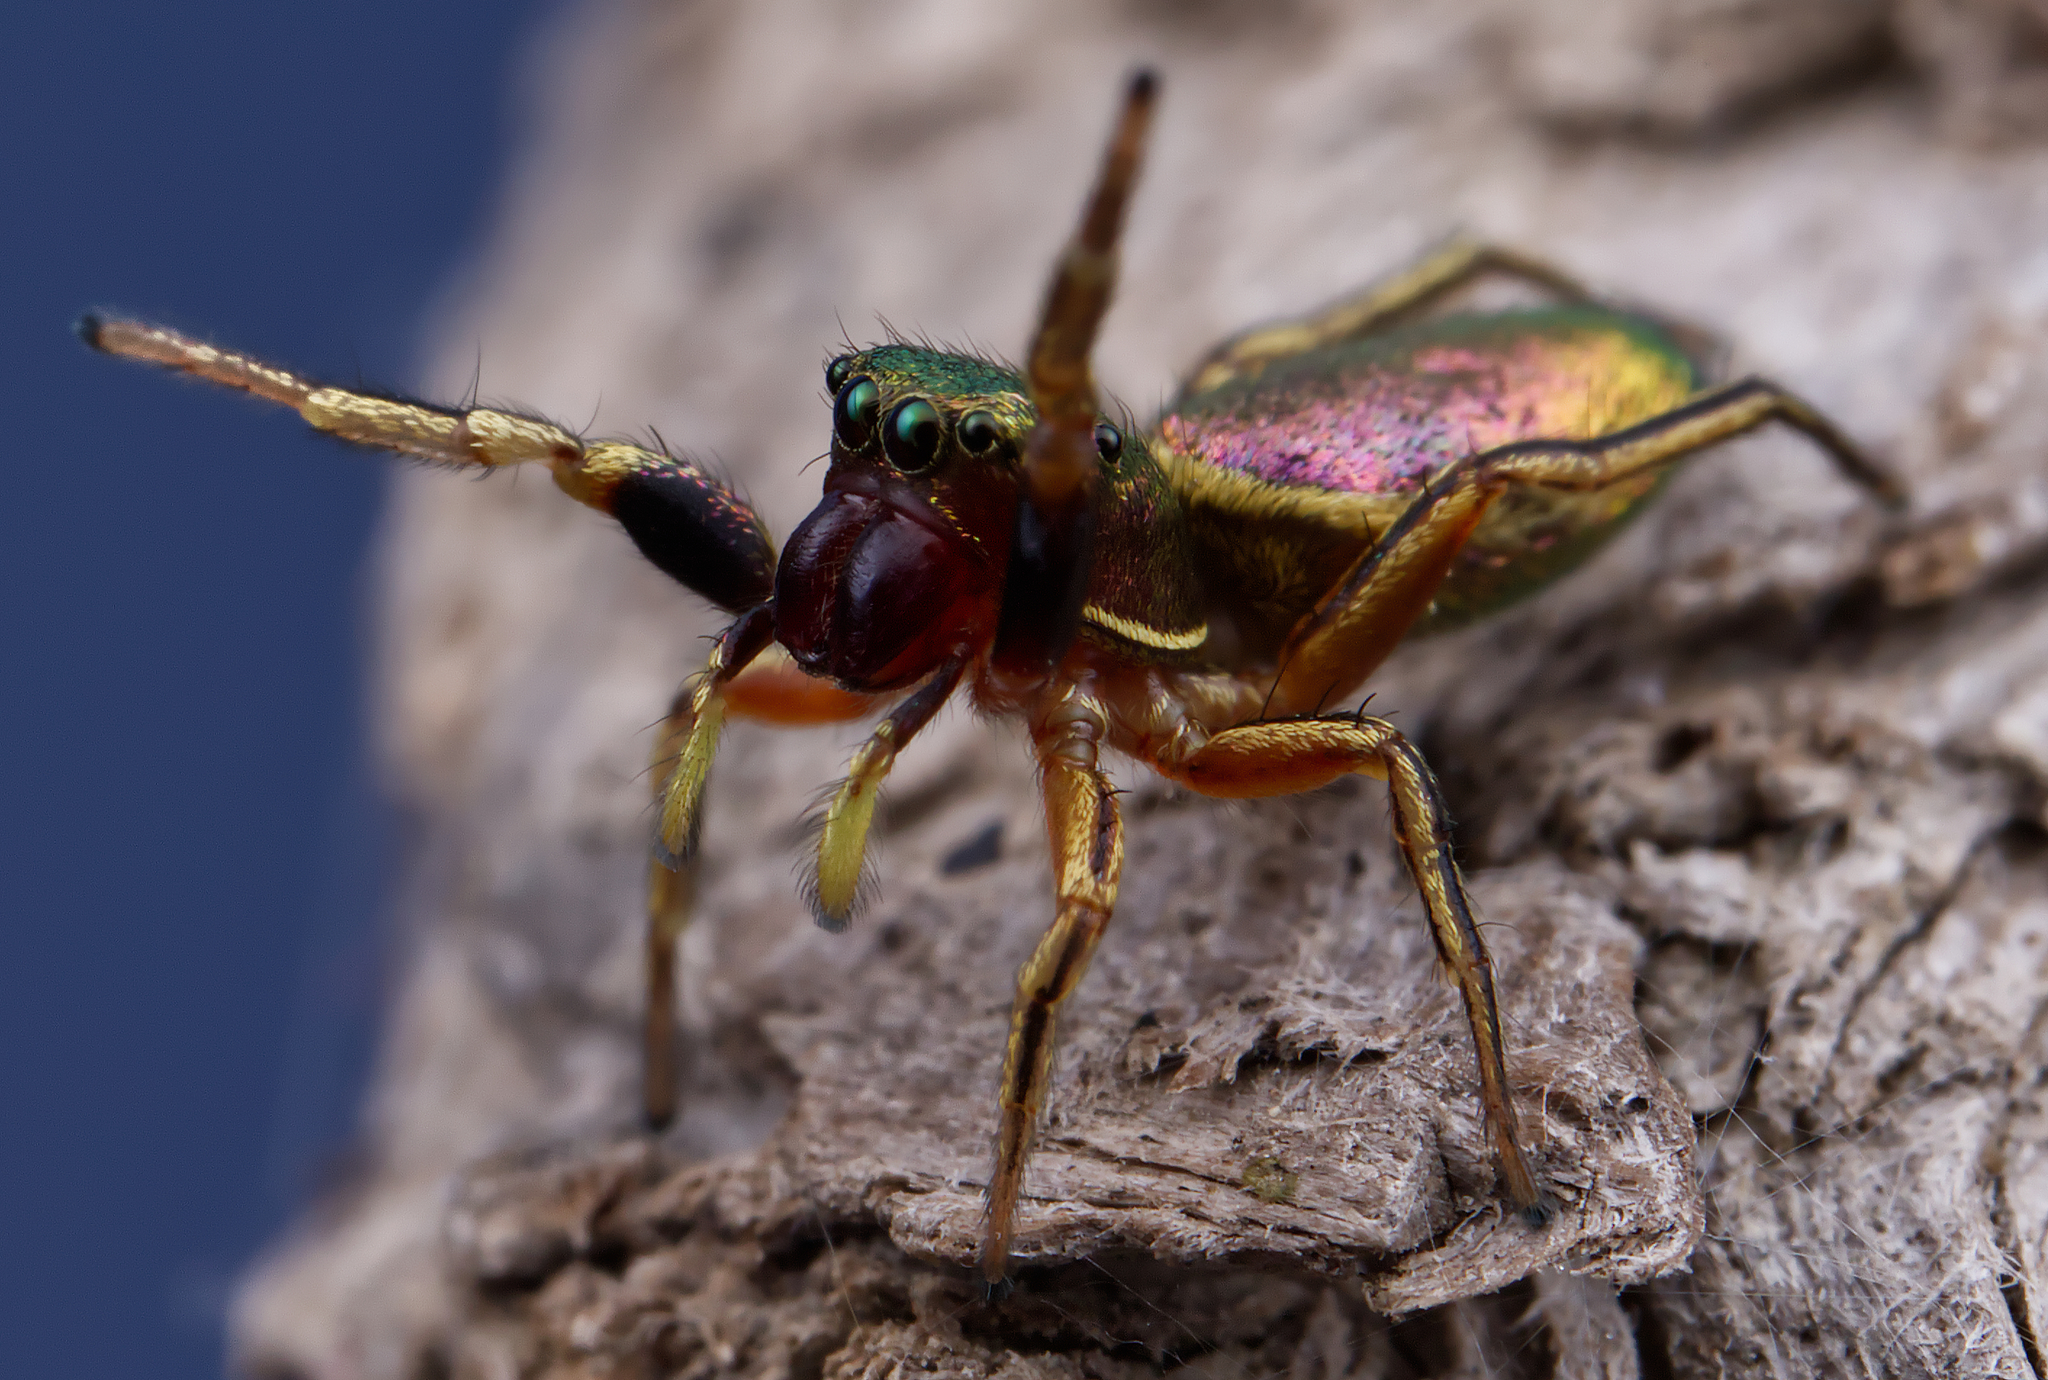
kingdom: Animalia
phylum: Arthropoda
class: Arachnida
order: Araneae
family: Salticidae
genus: Tutelina
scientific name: Tutelina elegans
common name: Thin-spined jumping spider
